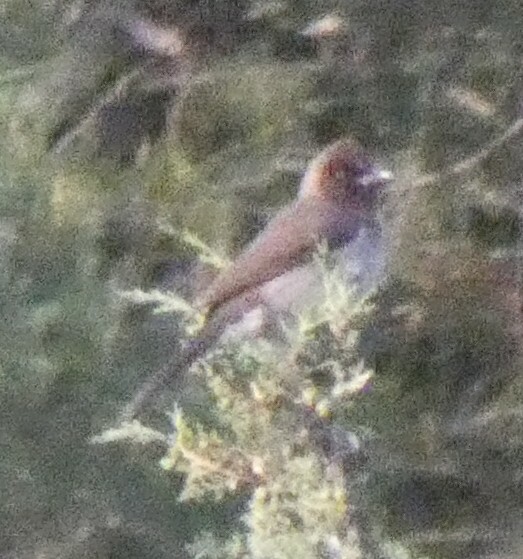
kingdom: Animalia
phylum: Chordata
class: Aves
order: Passeriformes
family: Pycnonotidae
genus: Pycnonotus
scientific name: Pycnonotus barbatus
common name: Common bulbul
